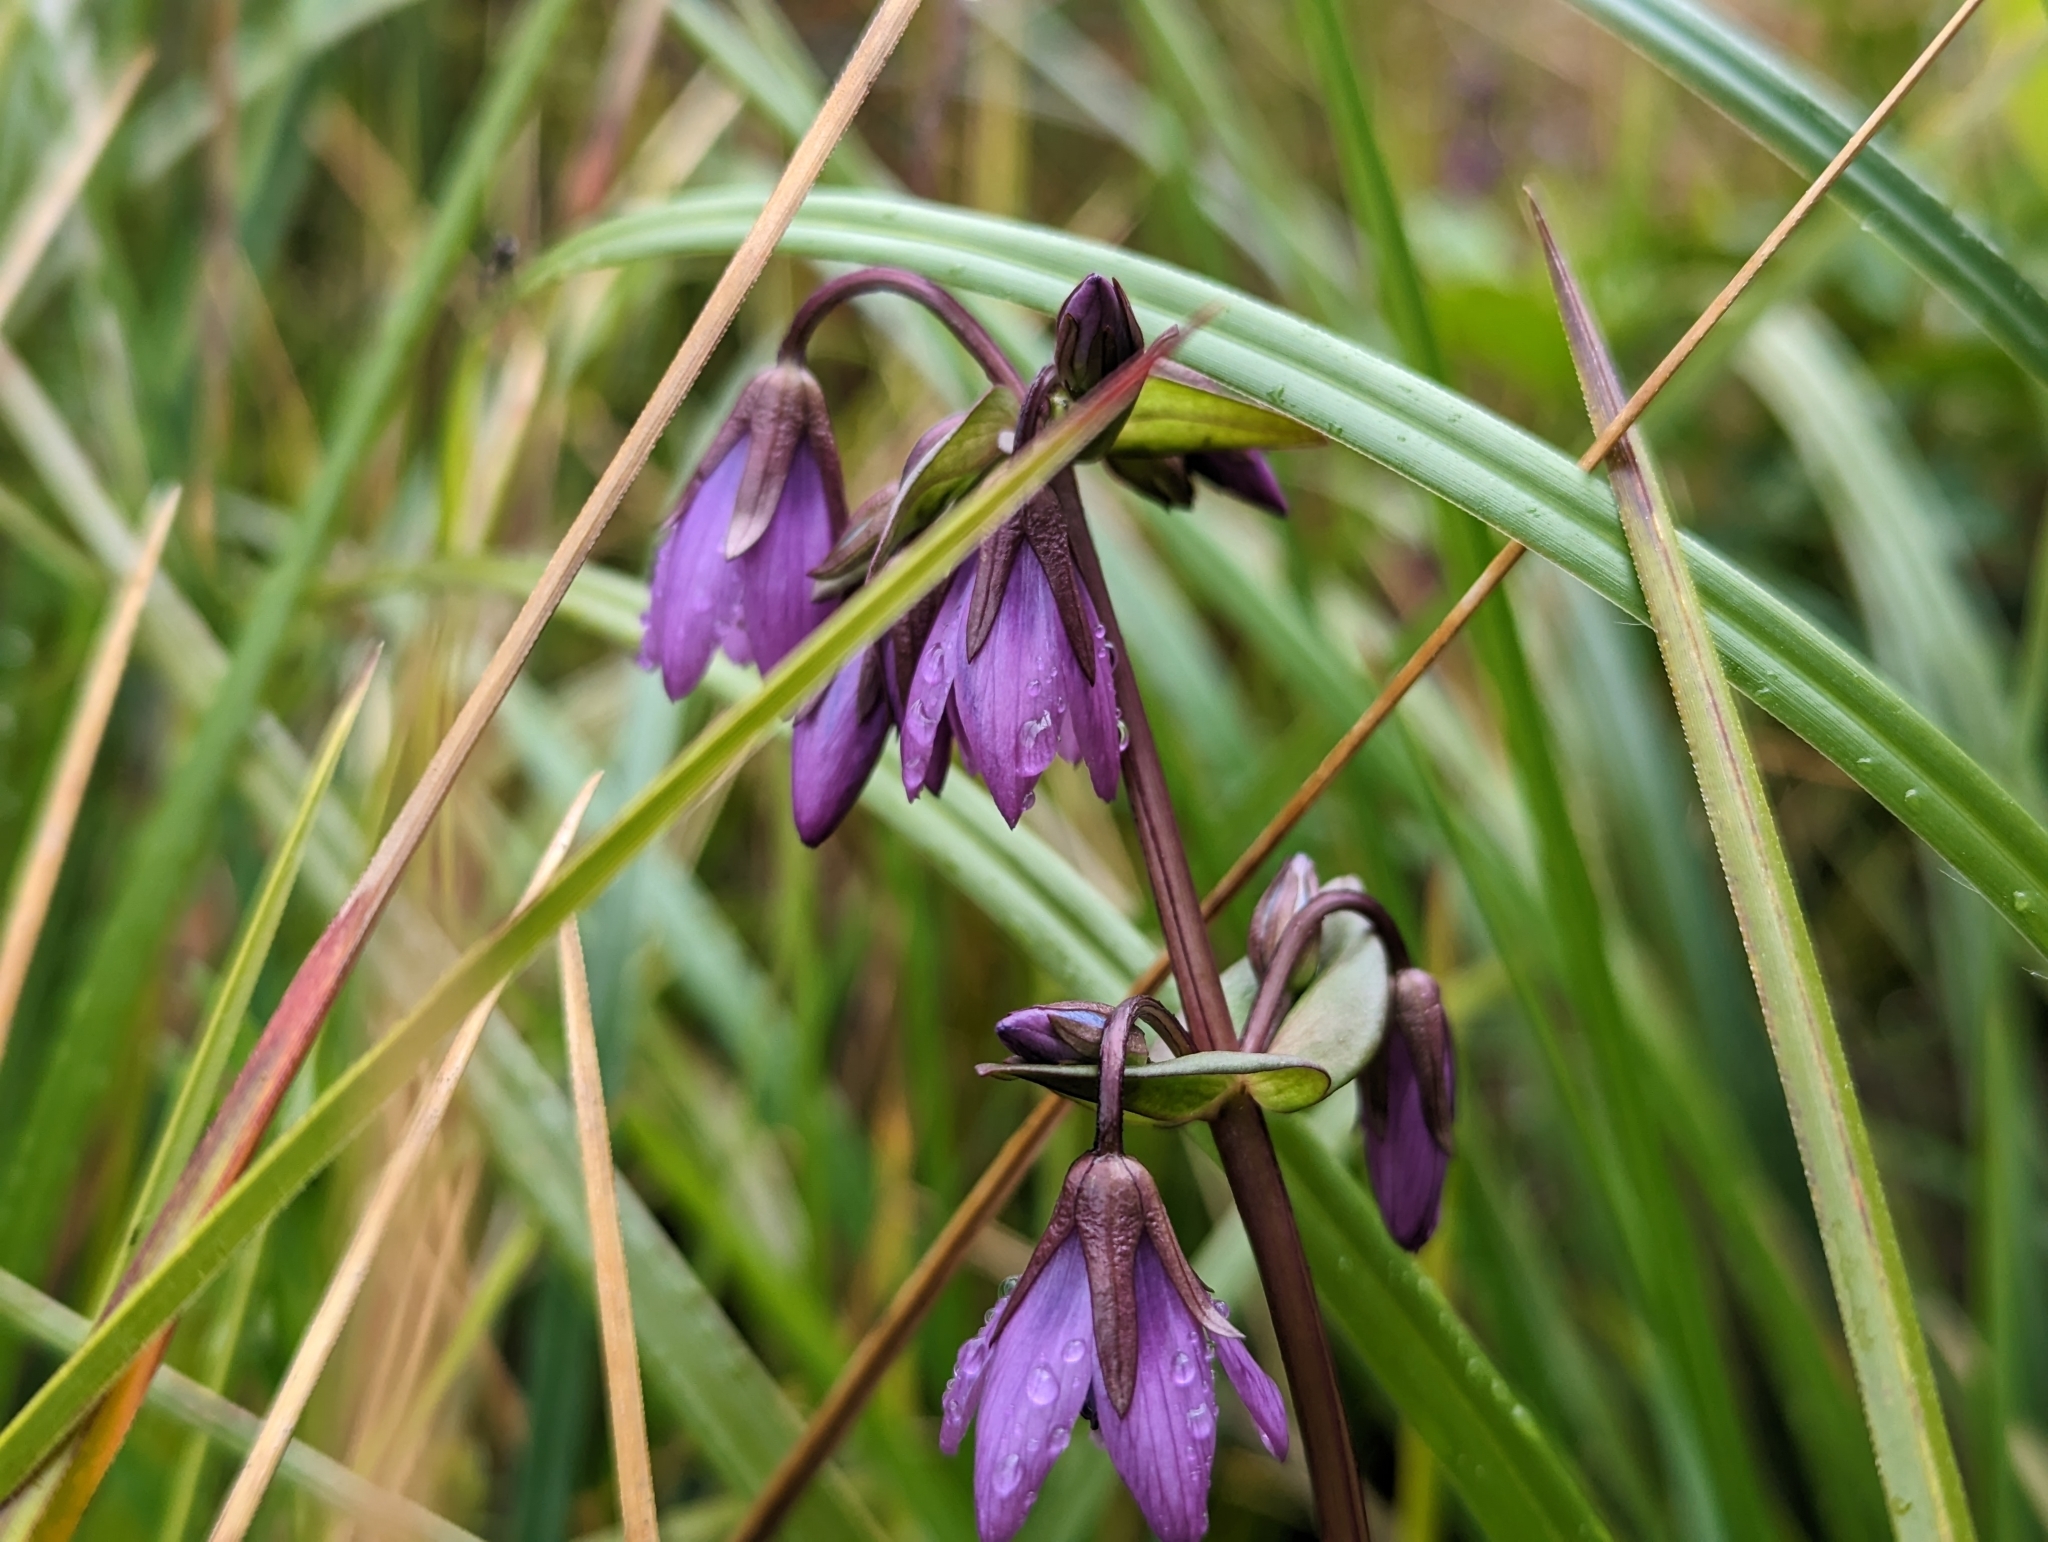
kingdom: Plantae
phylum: Tracheophyta
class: Magnoliopsida
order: Gentianales
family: Gentianaceae
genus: Gentianella
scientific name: Gentianella rapunculoides
